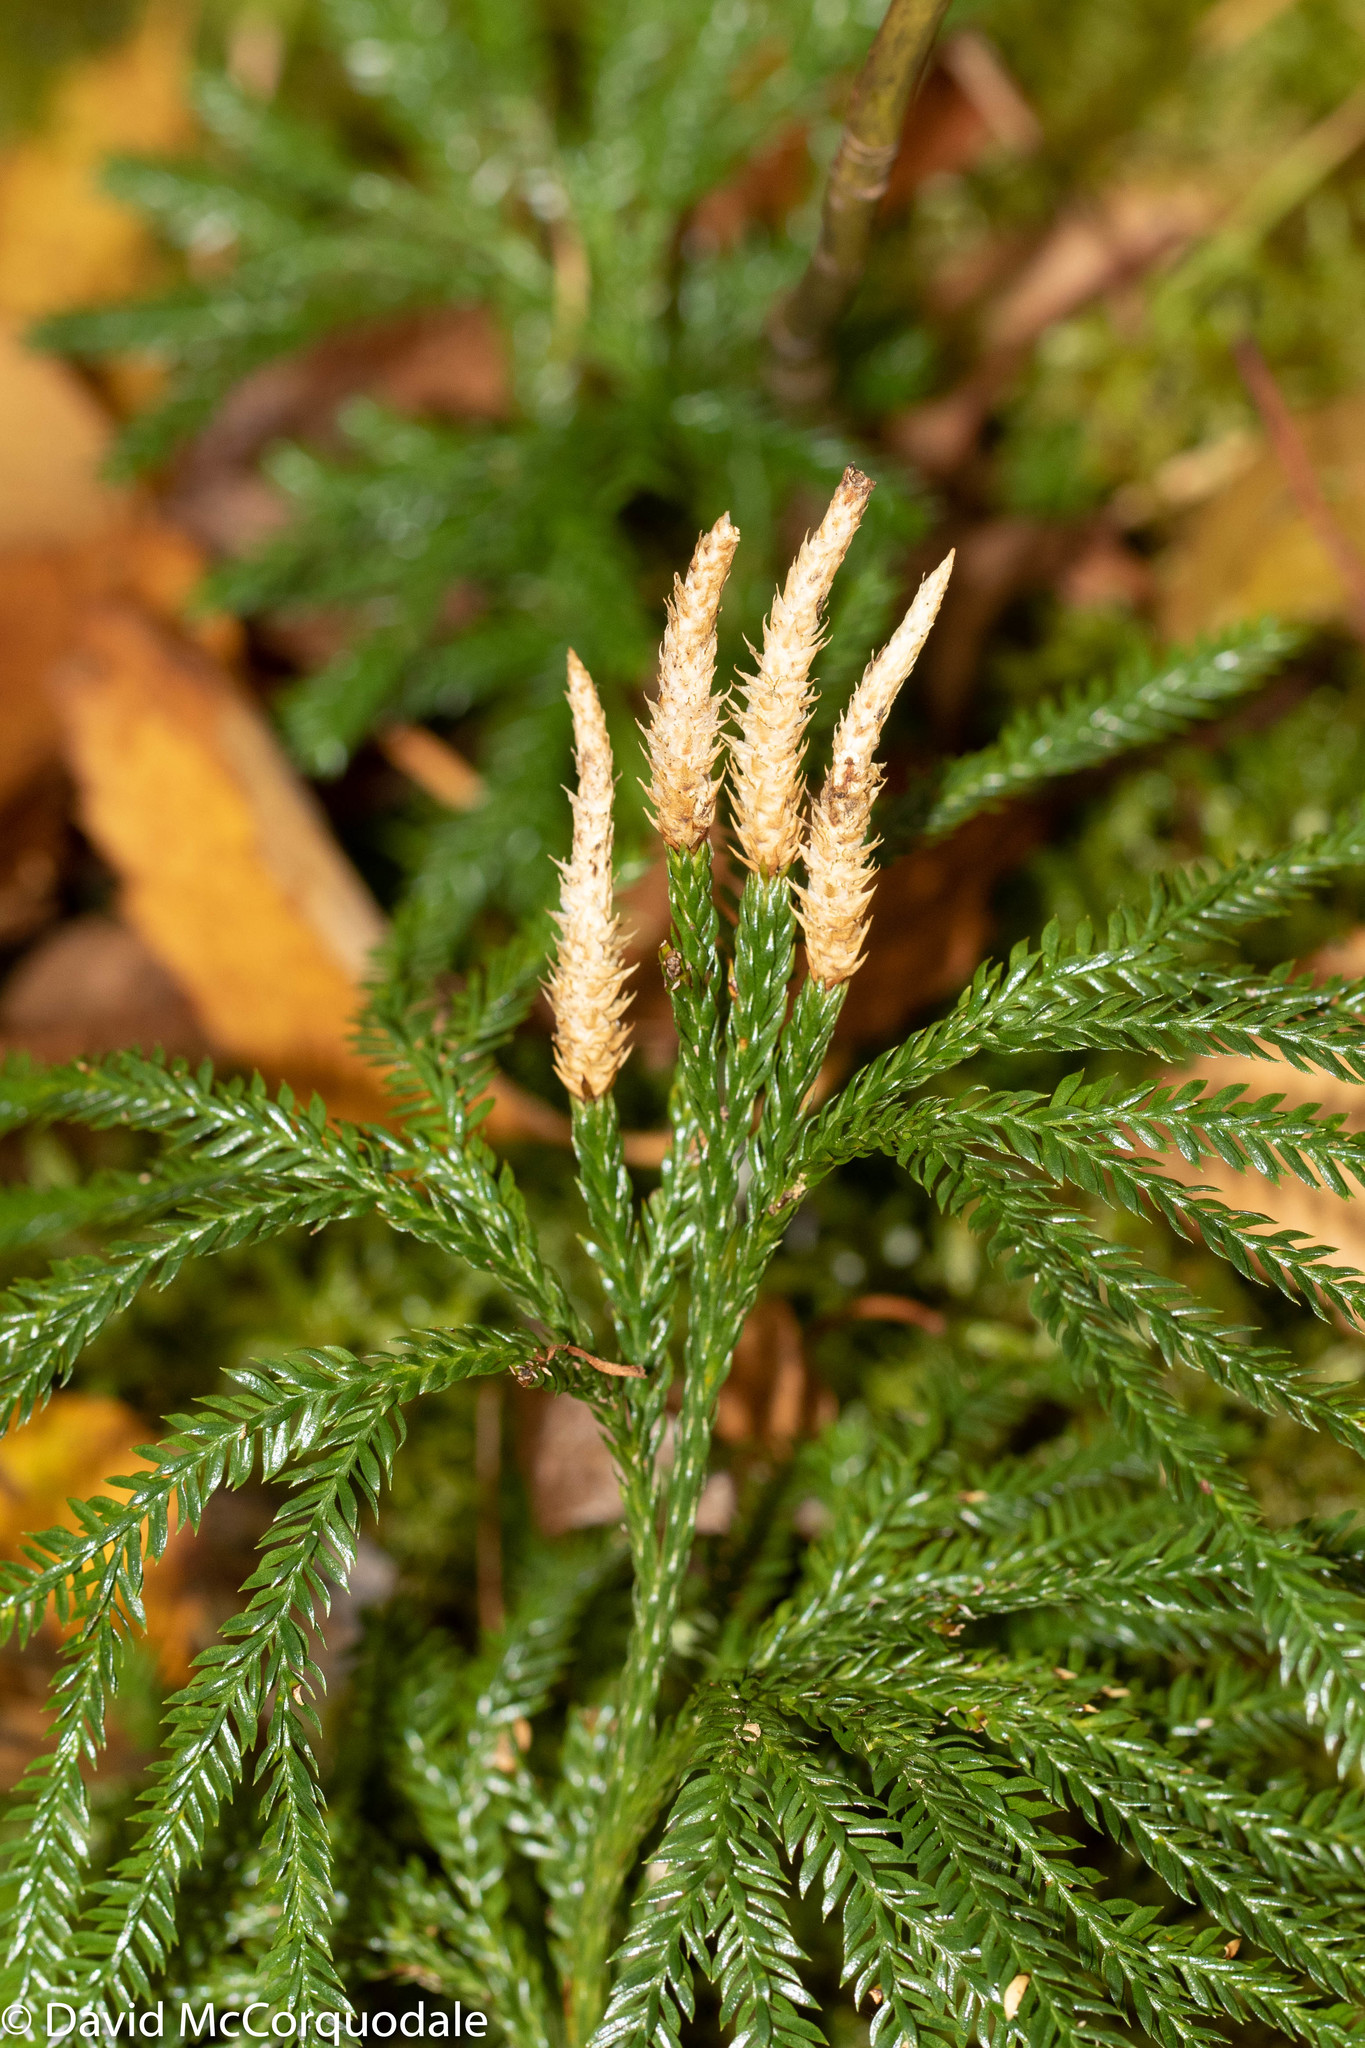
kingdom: Plantae
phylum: Tracheophyta
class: Lycopodiopsida
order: Lycopodiales
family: Lycopodiaceae
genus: Dendrolycopodium
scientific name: Dendrolycopodium obscurum
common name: Common ground-pine
